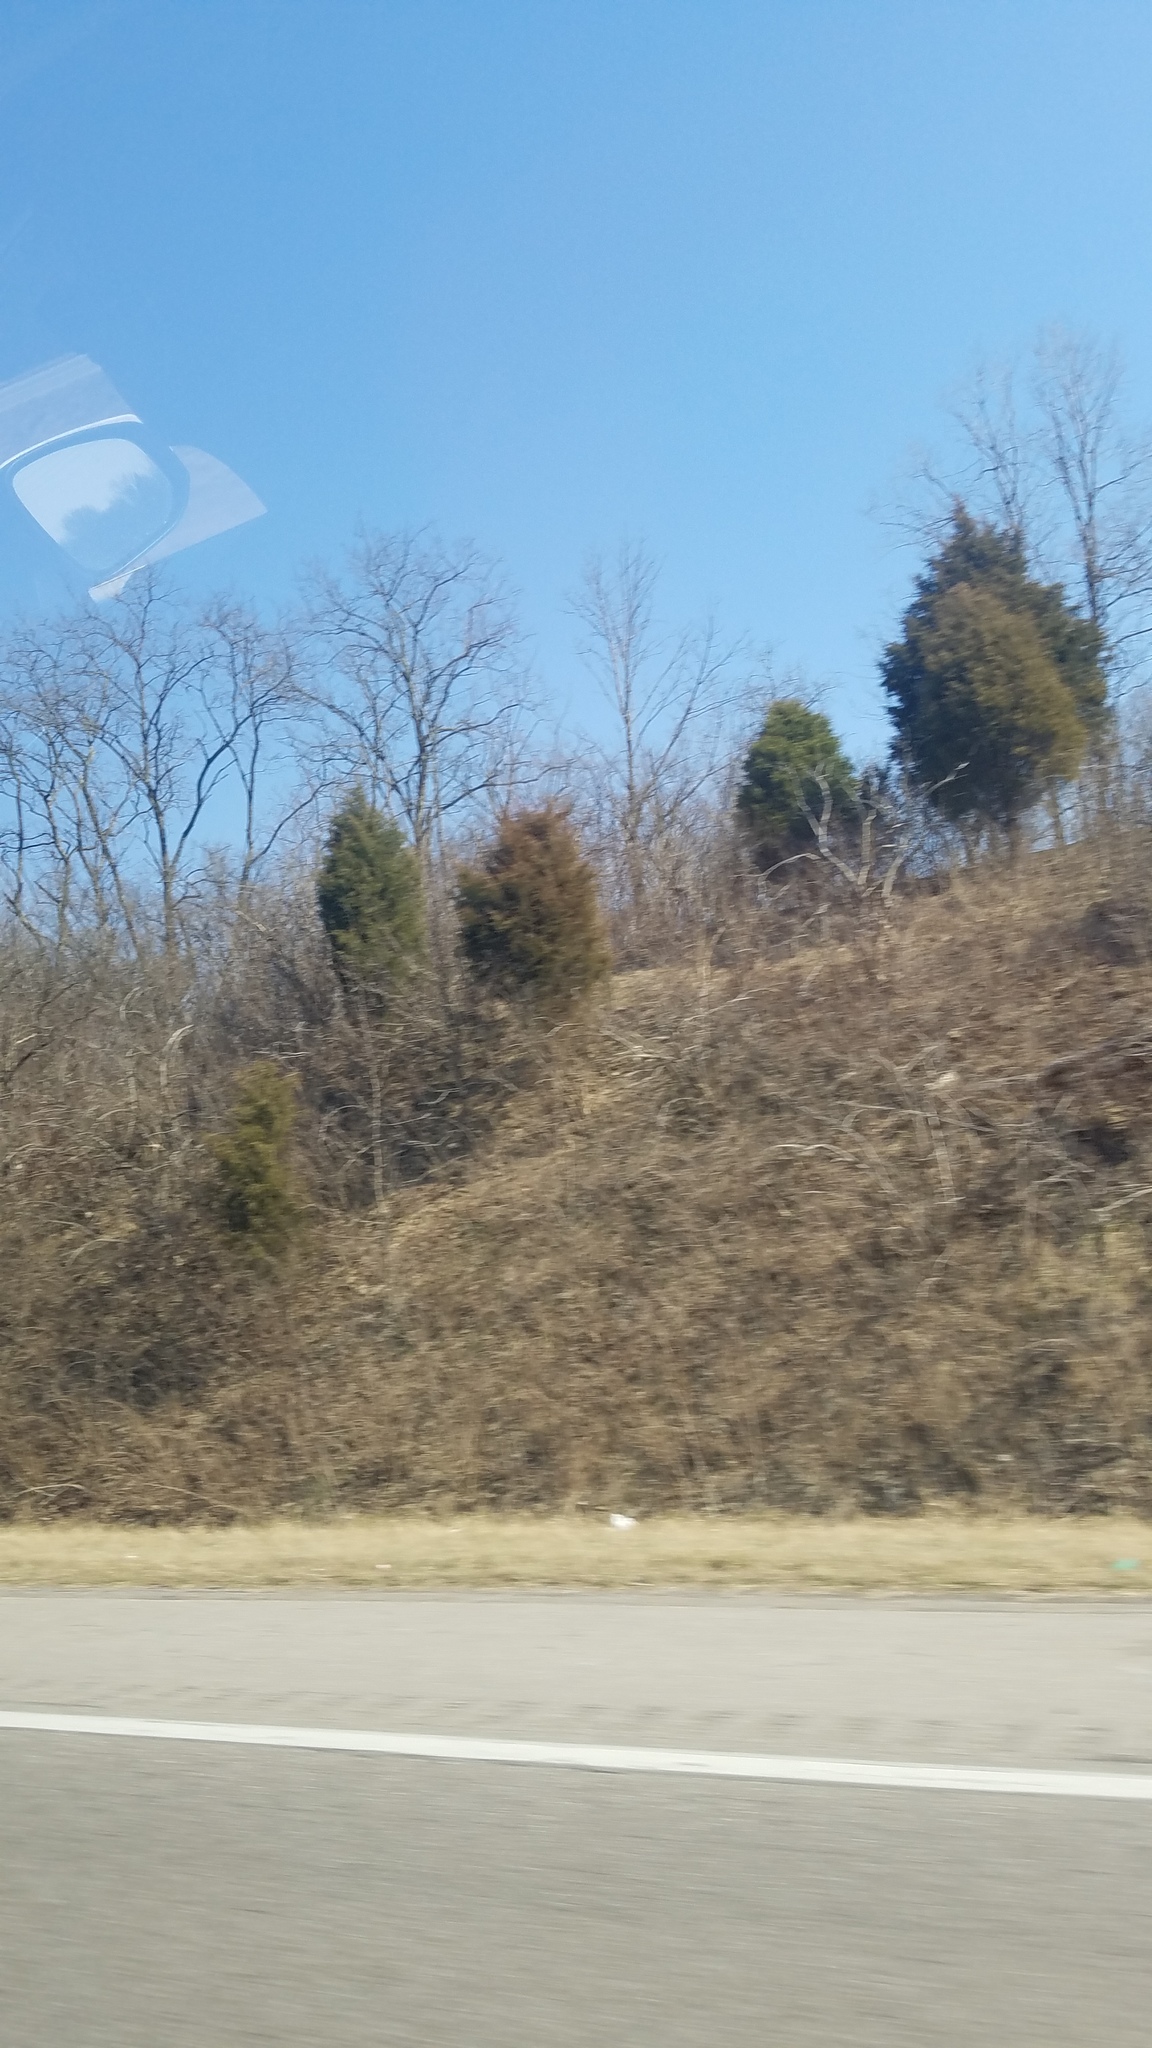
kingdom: Plantae
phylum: Tracheophyta
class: Pinopsida
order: Pinales
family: Cupressaceae
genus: Juniperus
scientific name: Juniperus virginiana
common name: Red juniper
